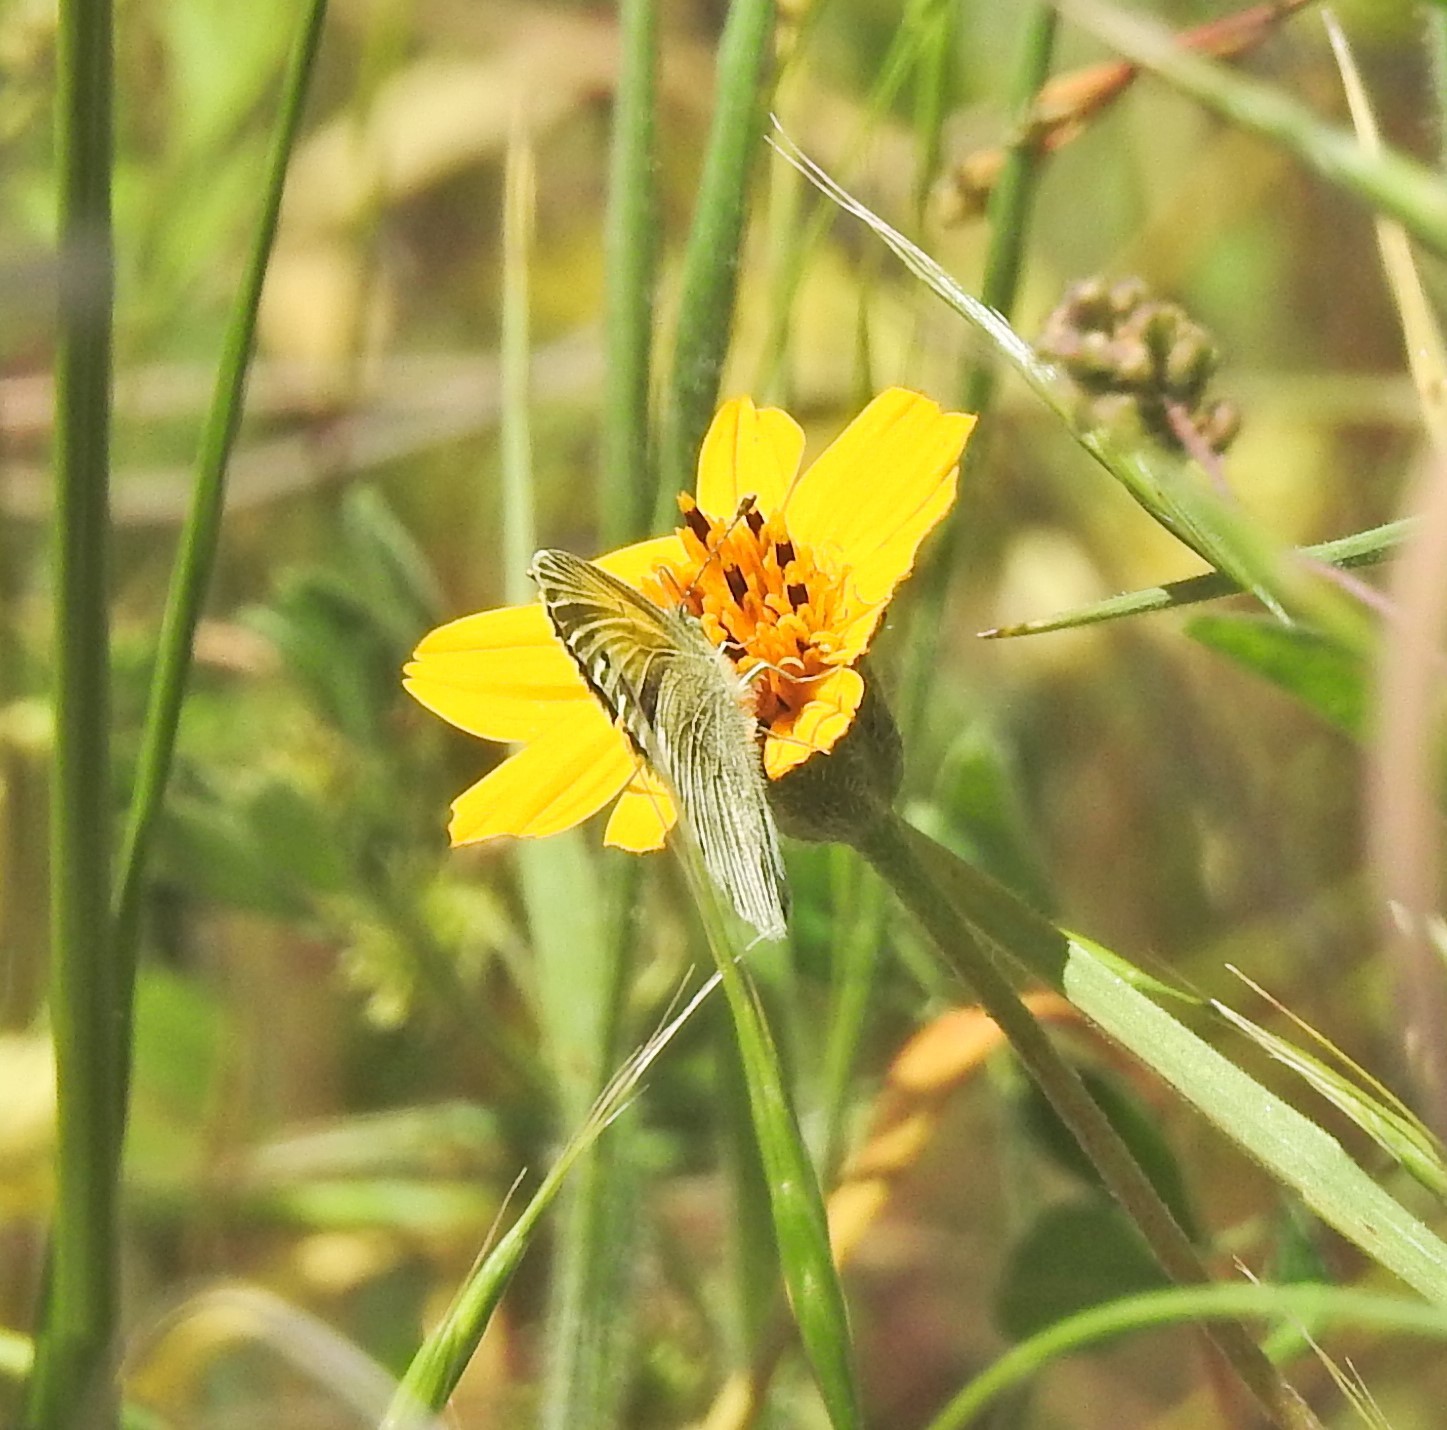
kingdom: Animalia
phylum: Arthropoda
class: Insecta
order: Lepidoptera
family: Pieridae
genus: Nathalis
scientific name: Nathalis iole
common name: Dainty sulphur
